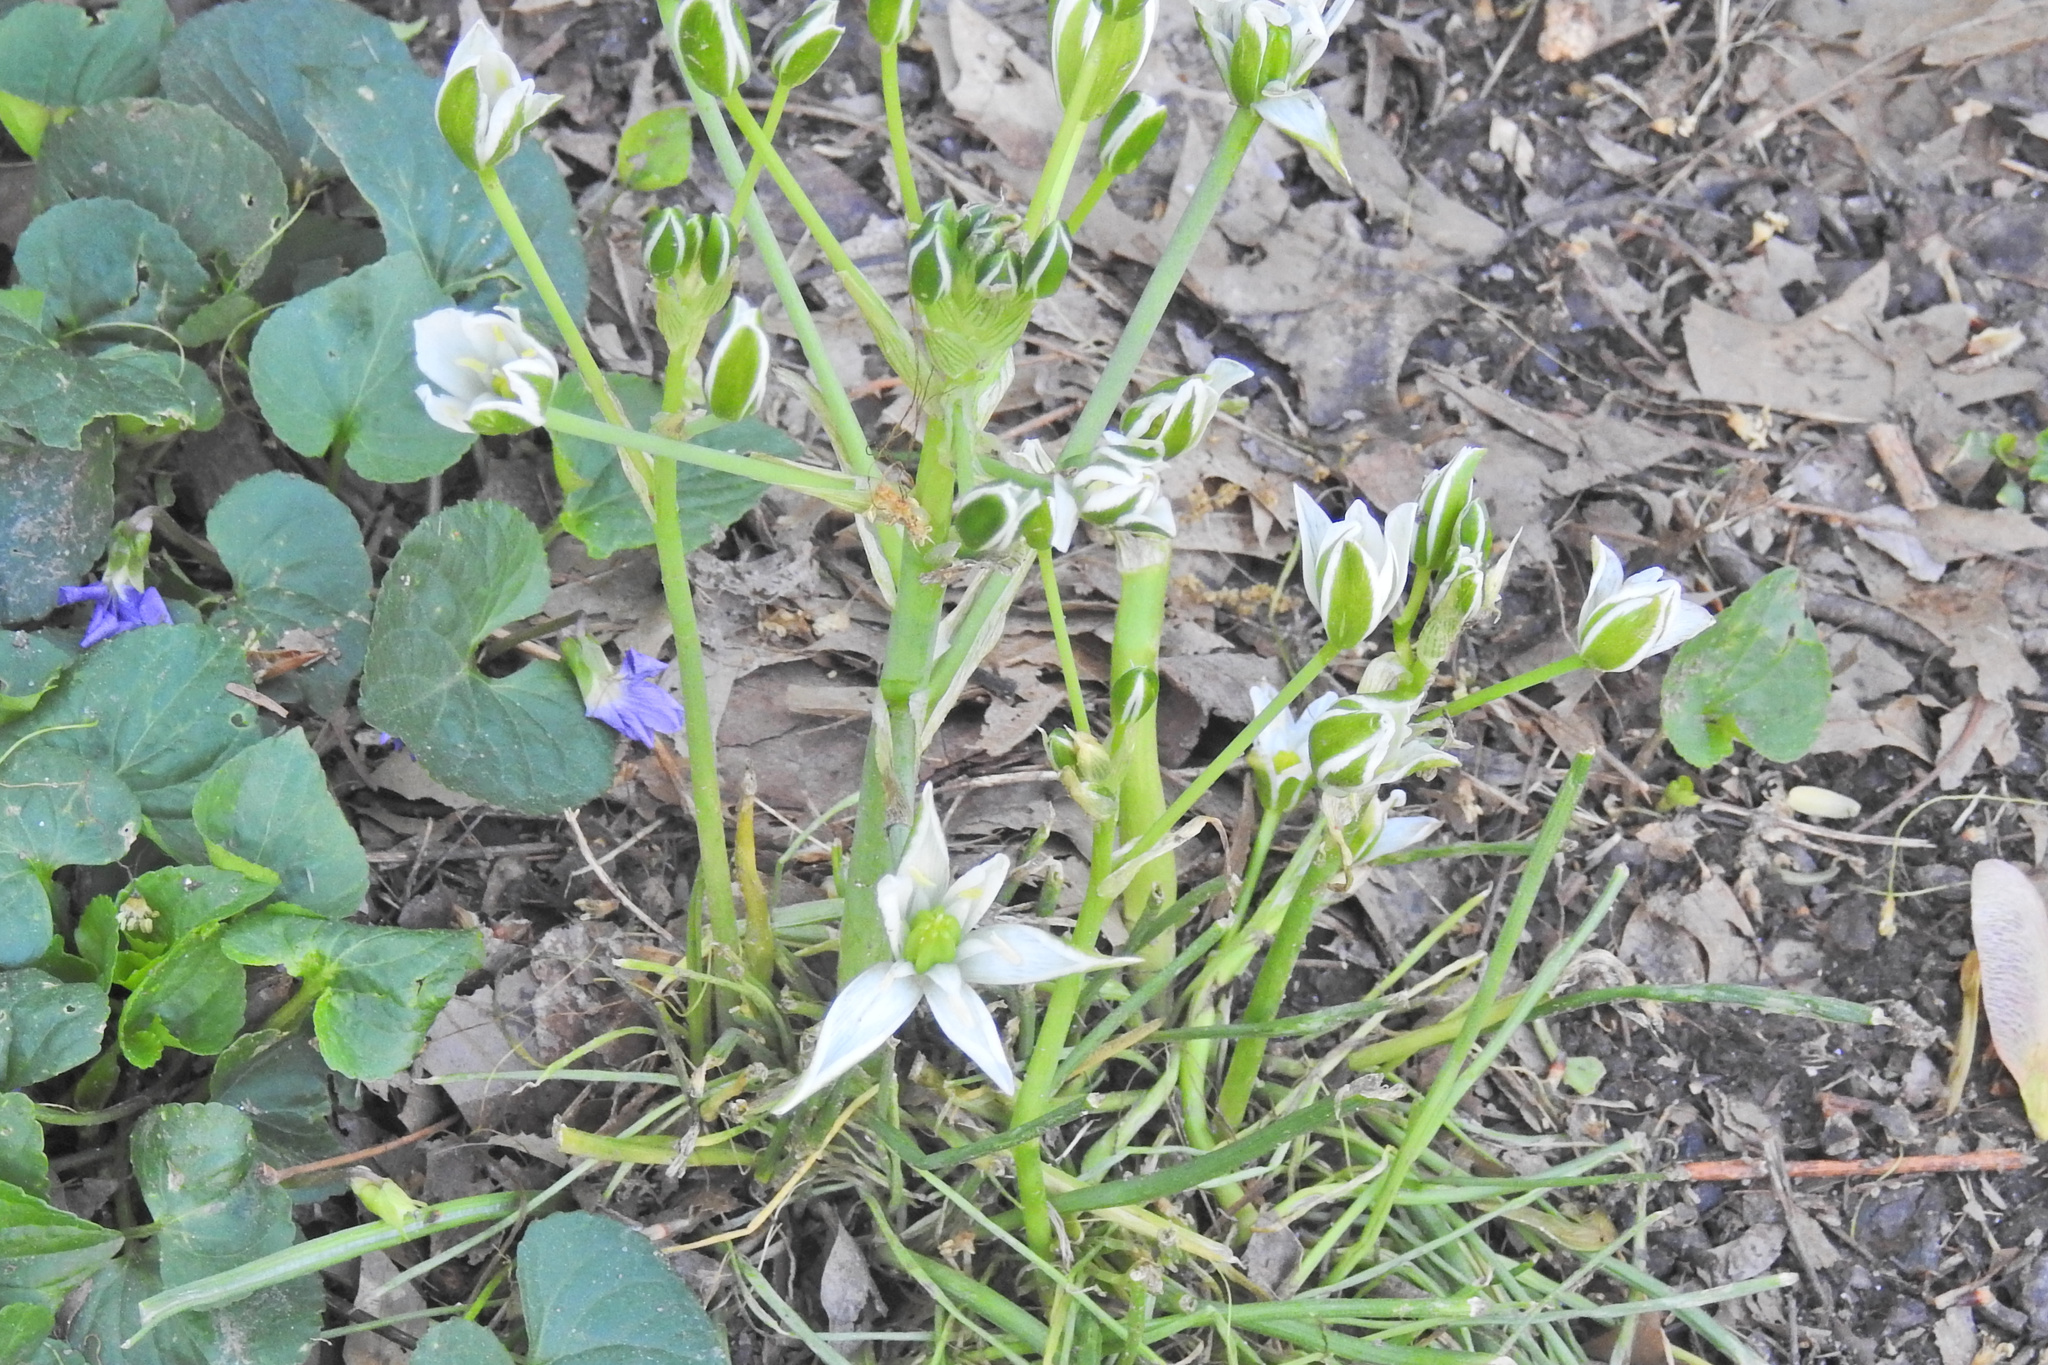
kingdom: Plantae
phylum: Tracheophyta
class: Liliopsida
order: Asparagales
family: Asparagaceae
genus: Ornithogalum
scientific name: Ornithogalum umbellatum
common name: Garden star-of-bethlehem
